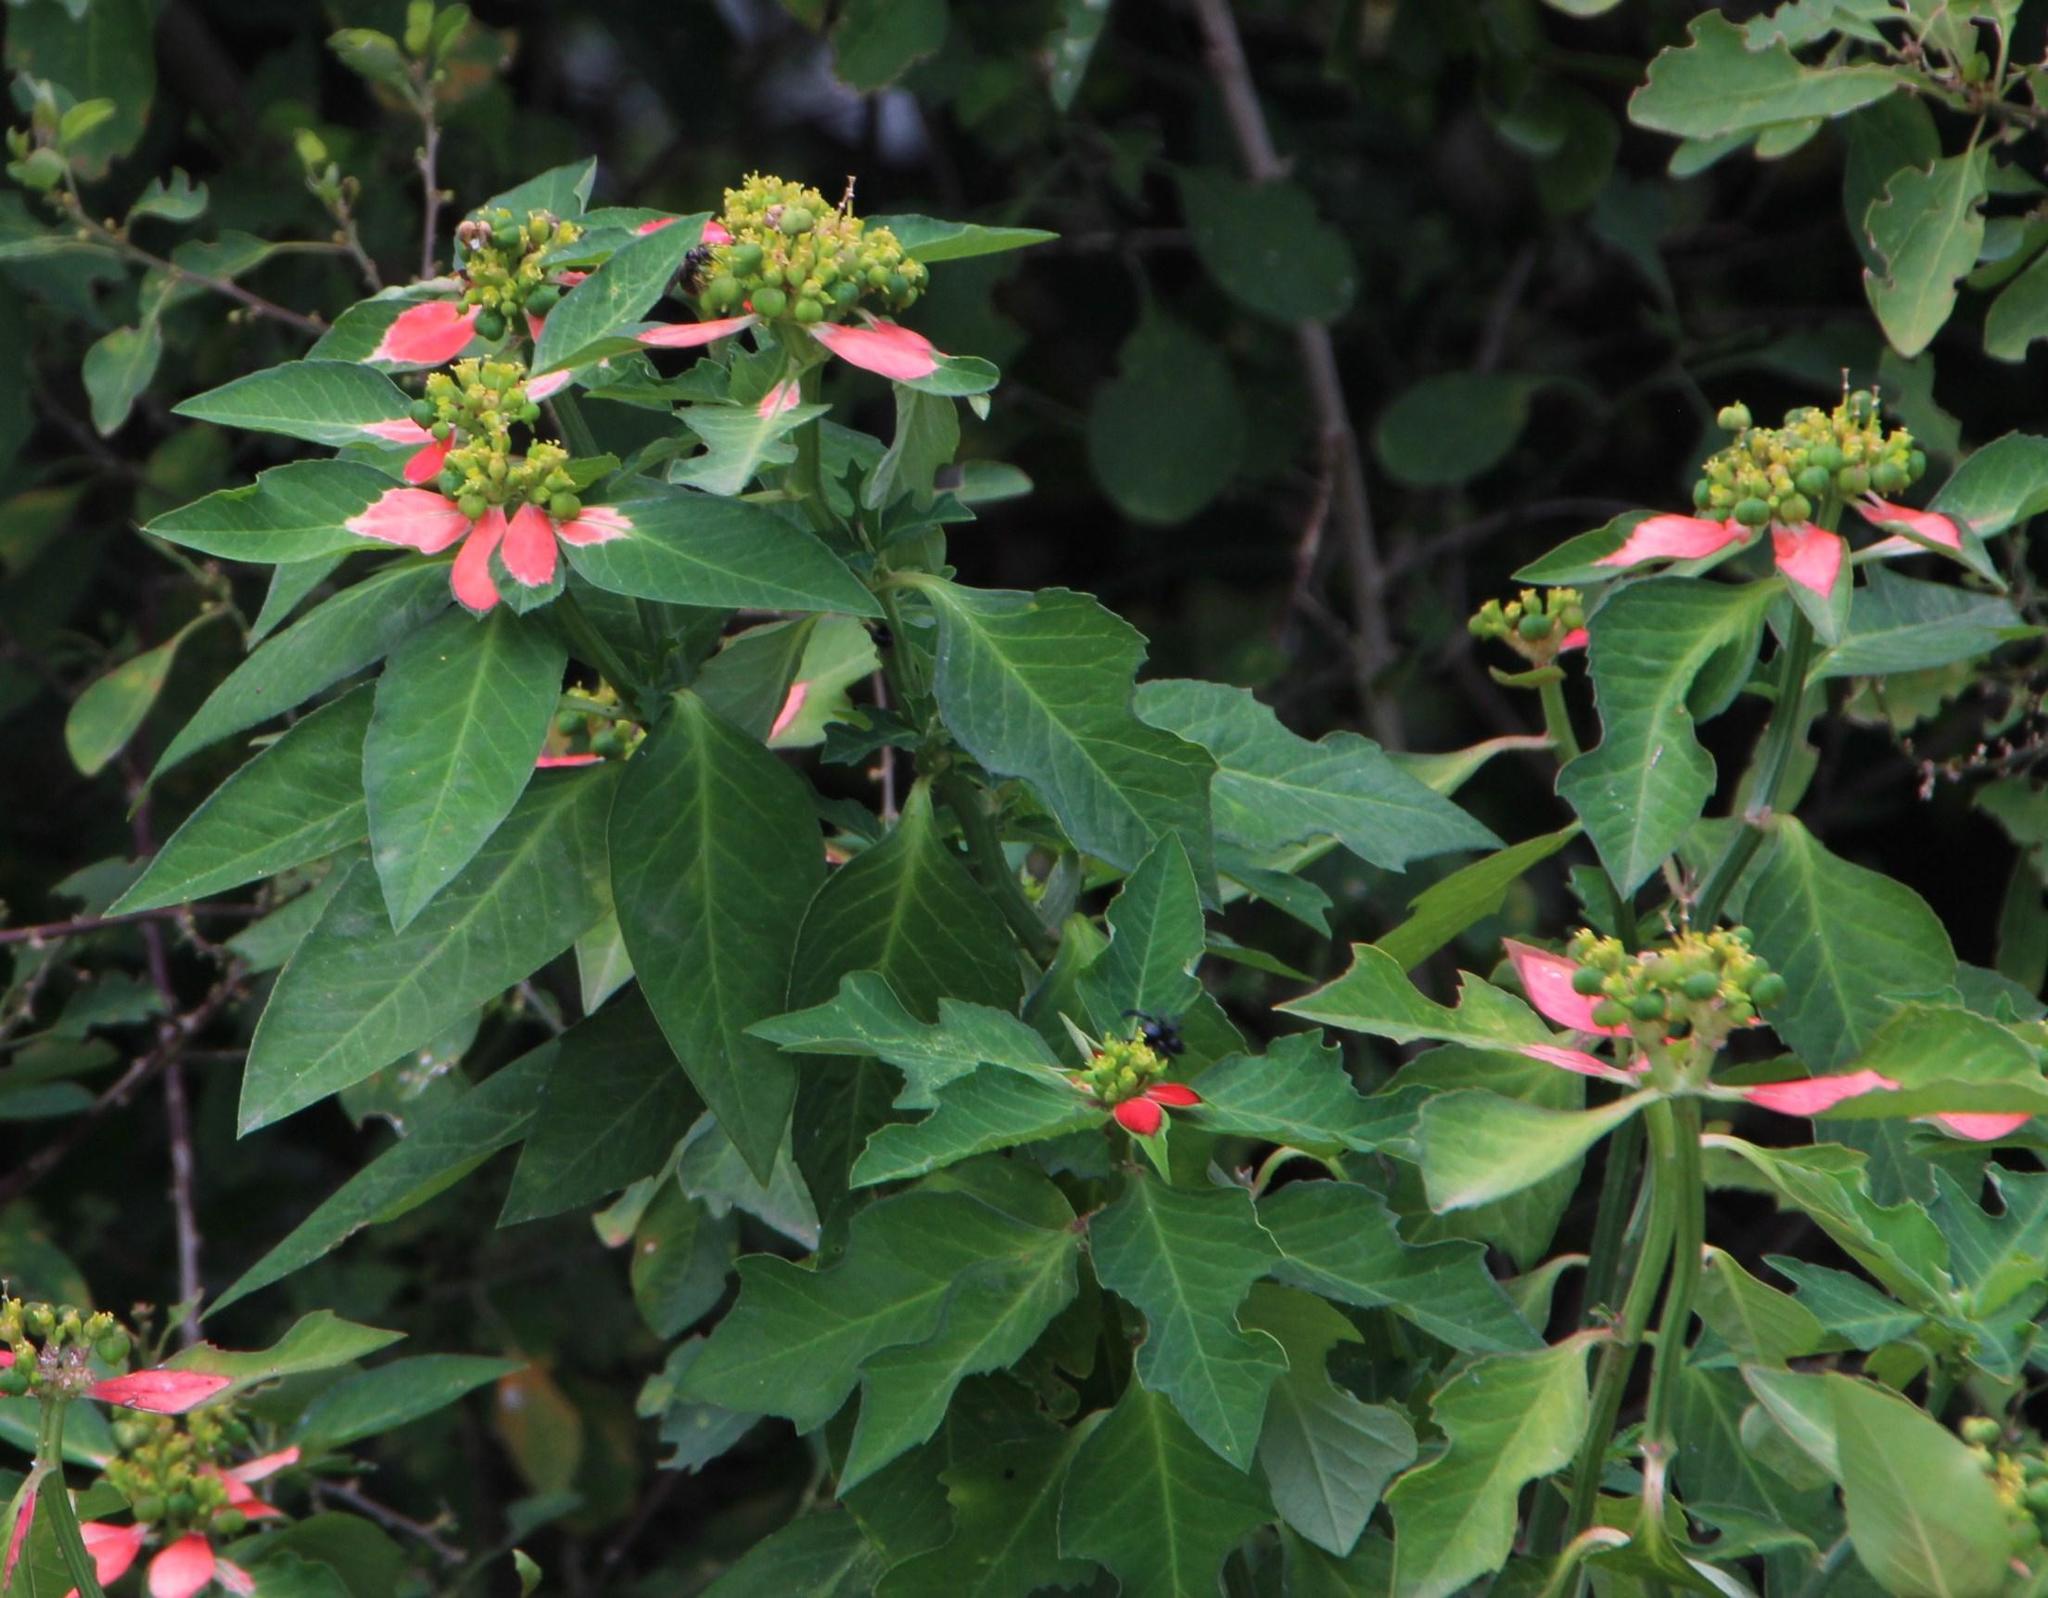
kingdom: Plantae
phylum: Tracheophyta
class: Magnoliopsida
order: Malpighiales
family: Euphorbiaceae
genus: Euphorbia
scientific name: Euphorbia heterophylla
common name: Mexican fireplant
